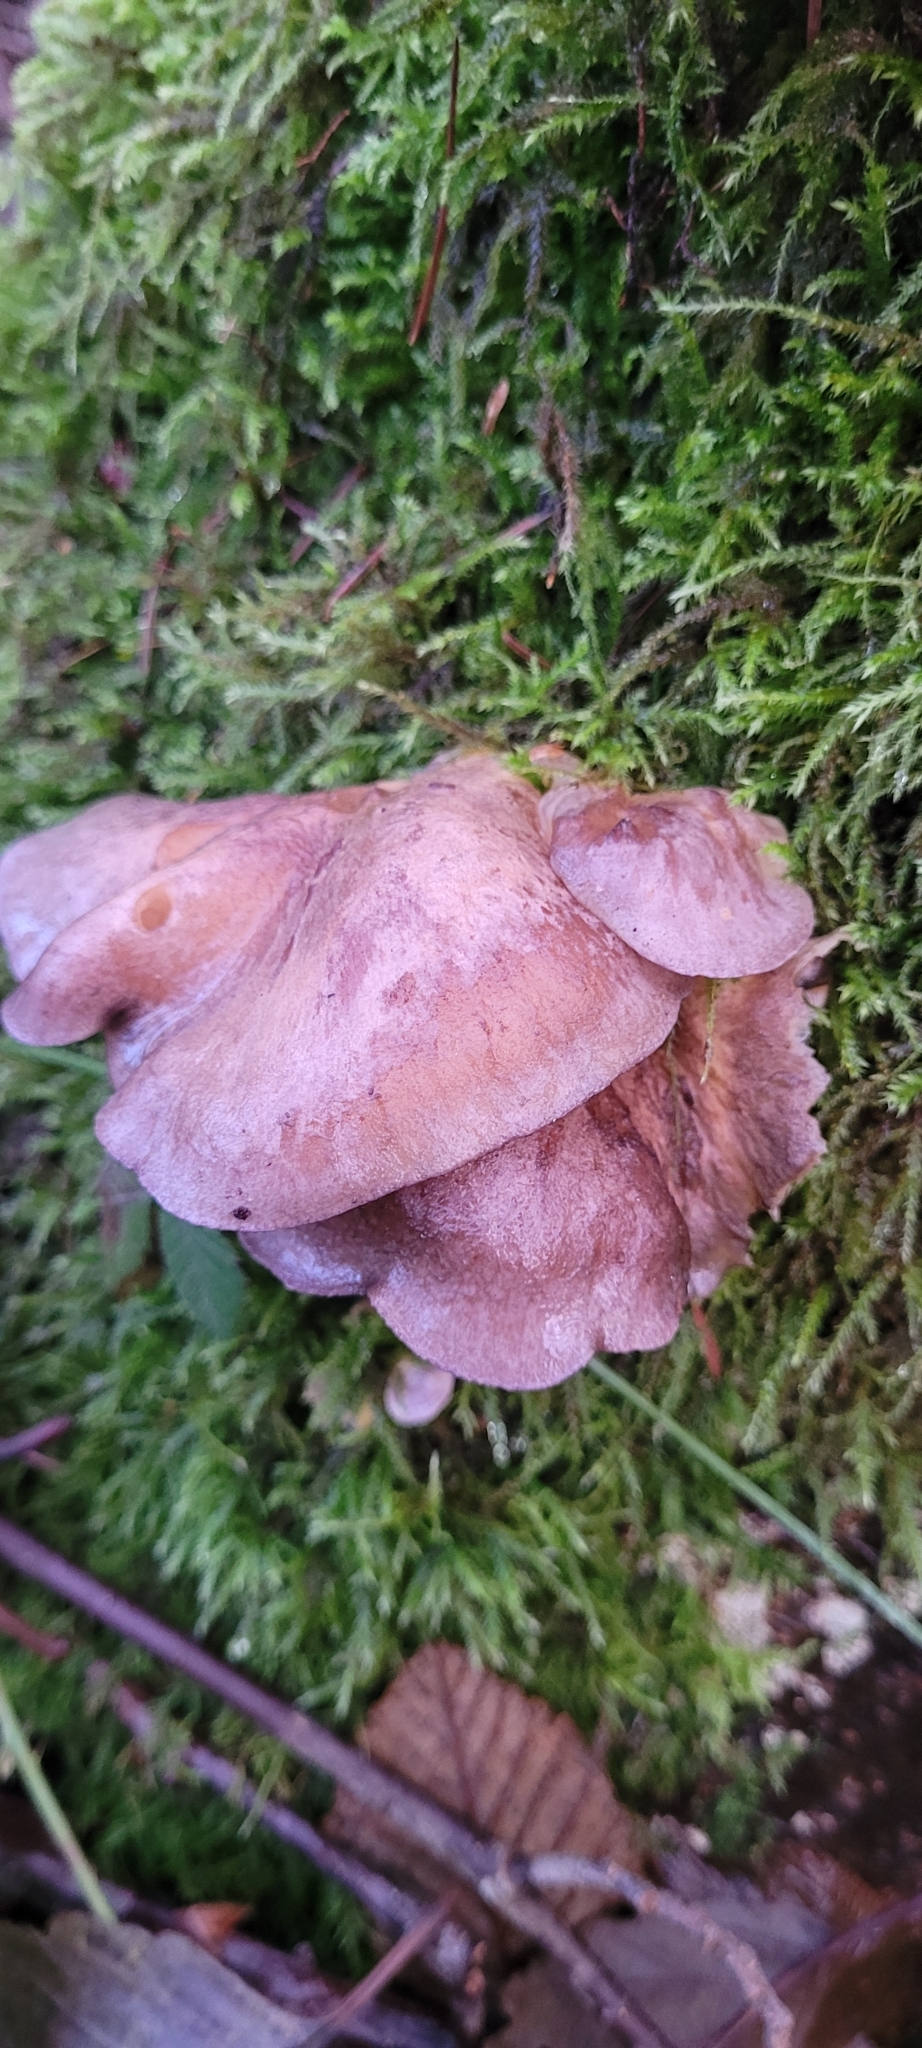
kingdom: Fungi
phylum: Basidiomycota
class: Agaricomycetes
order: Agaricales
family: Sarcomyxaceae
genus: Sarcomyxa
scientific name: Sarcomyxa serotina
